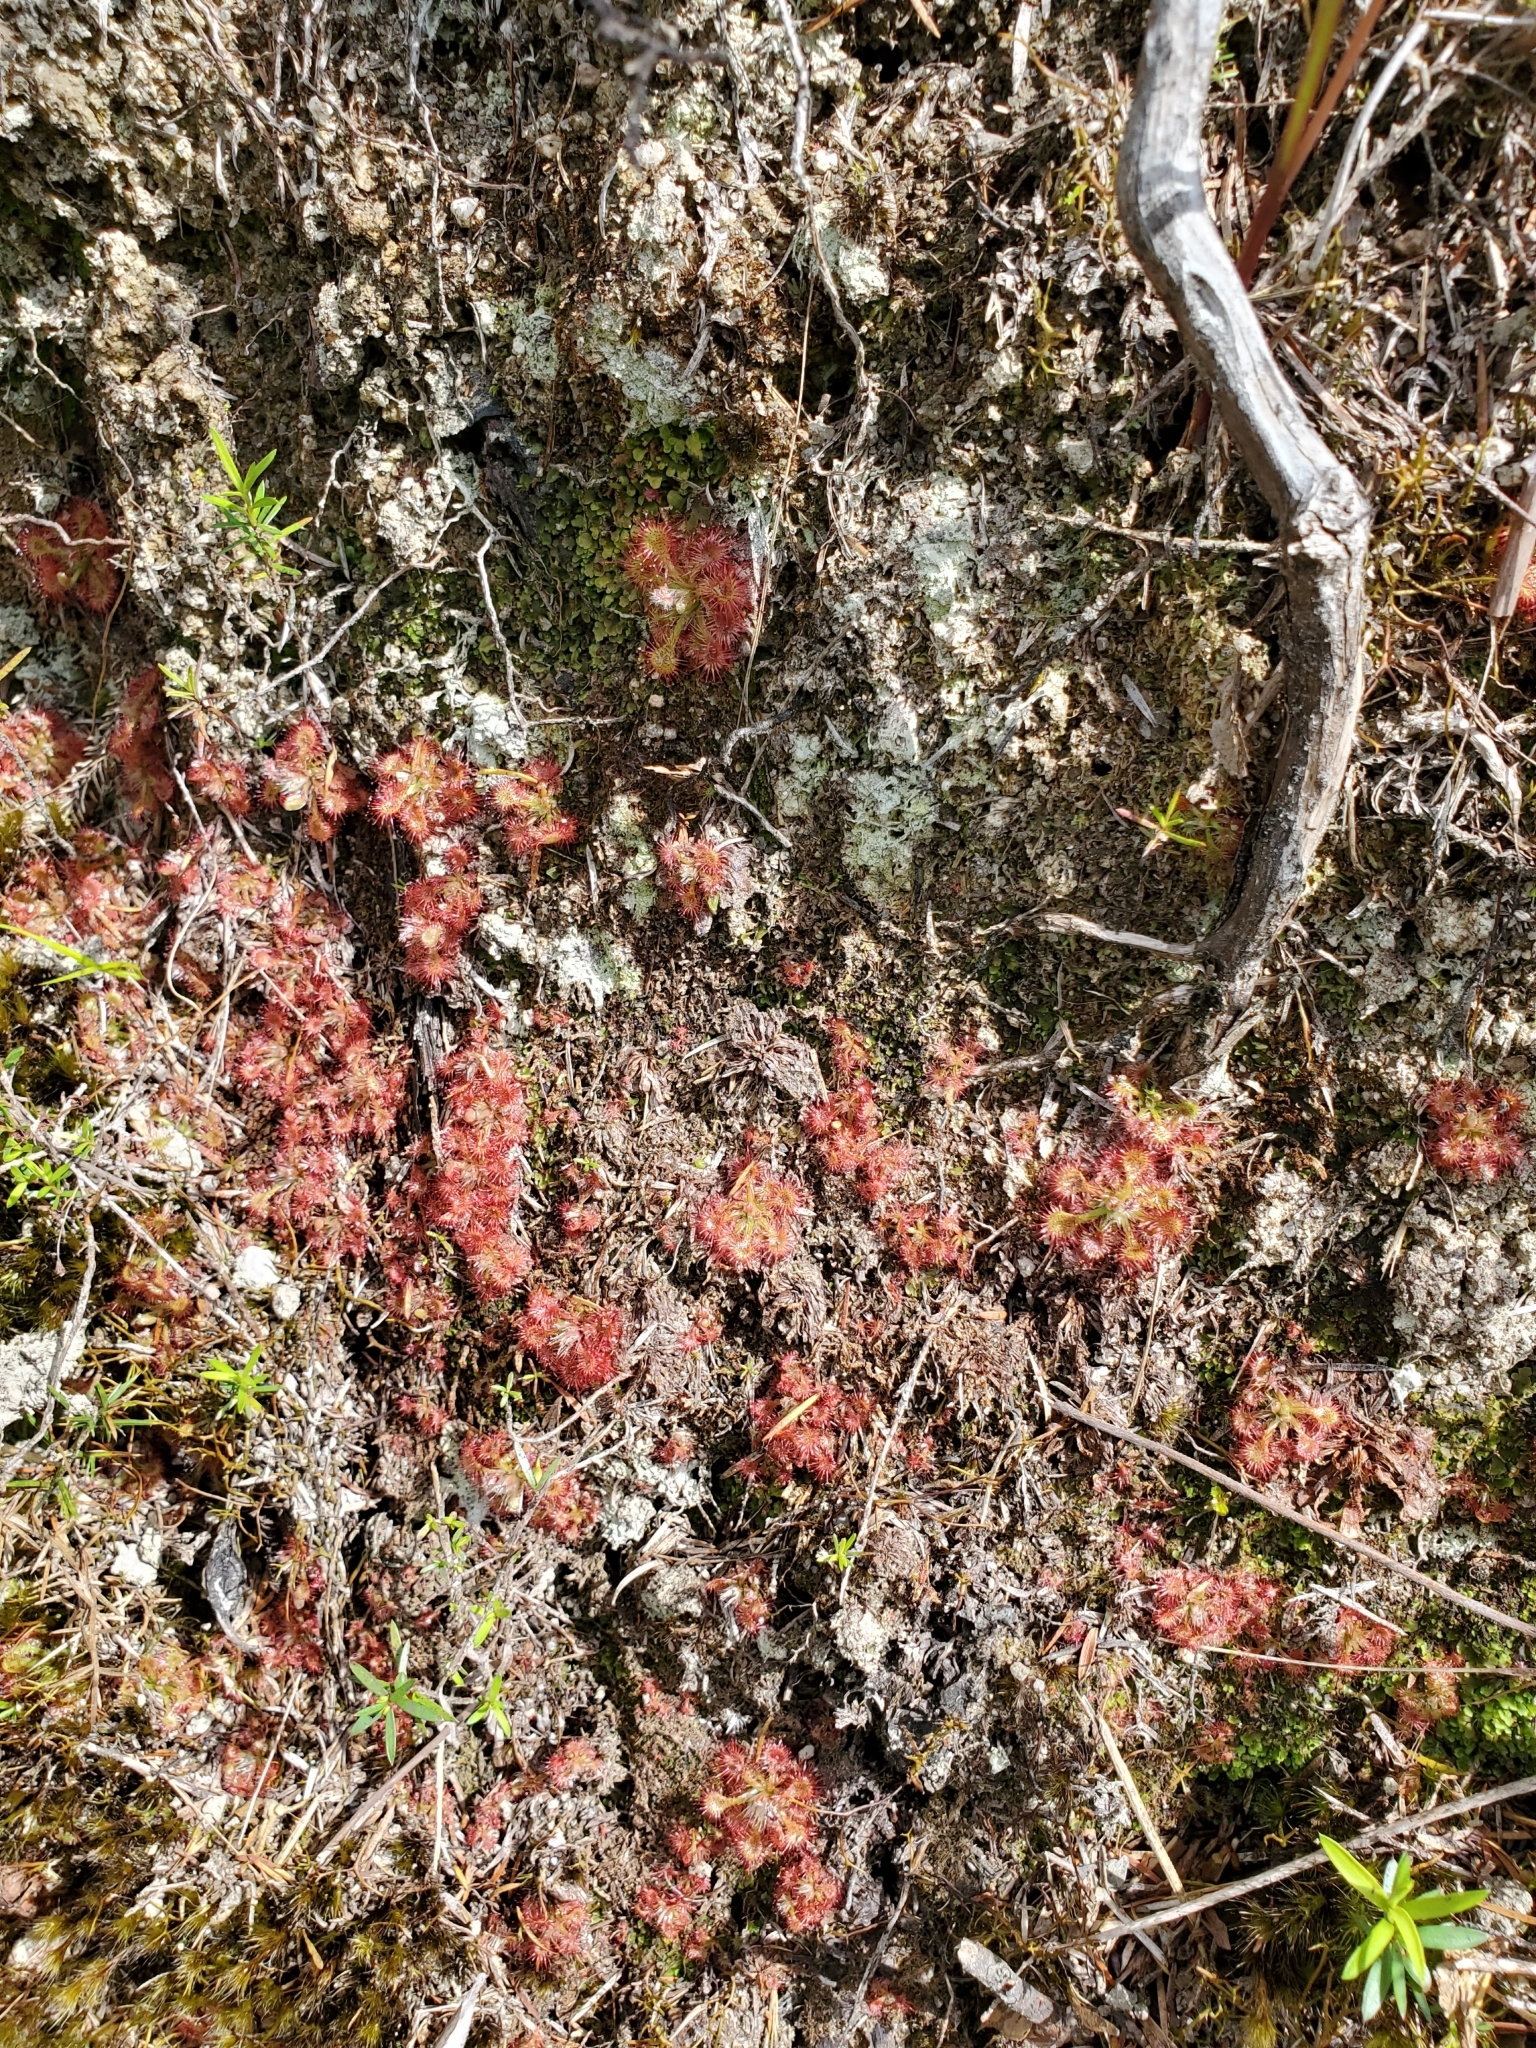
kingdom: Plantae
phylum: Tracheophyta
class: Magnoliopsida
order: Caryophyllales
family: Droseraceae
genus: Drosera
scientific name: Drosera spatulata
